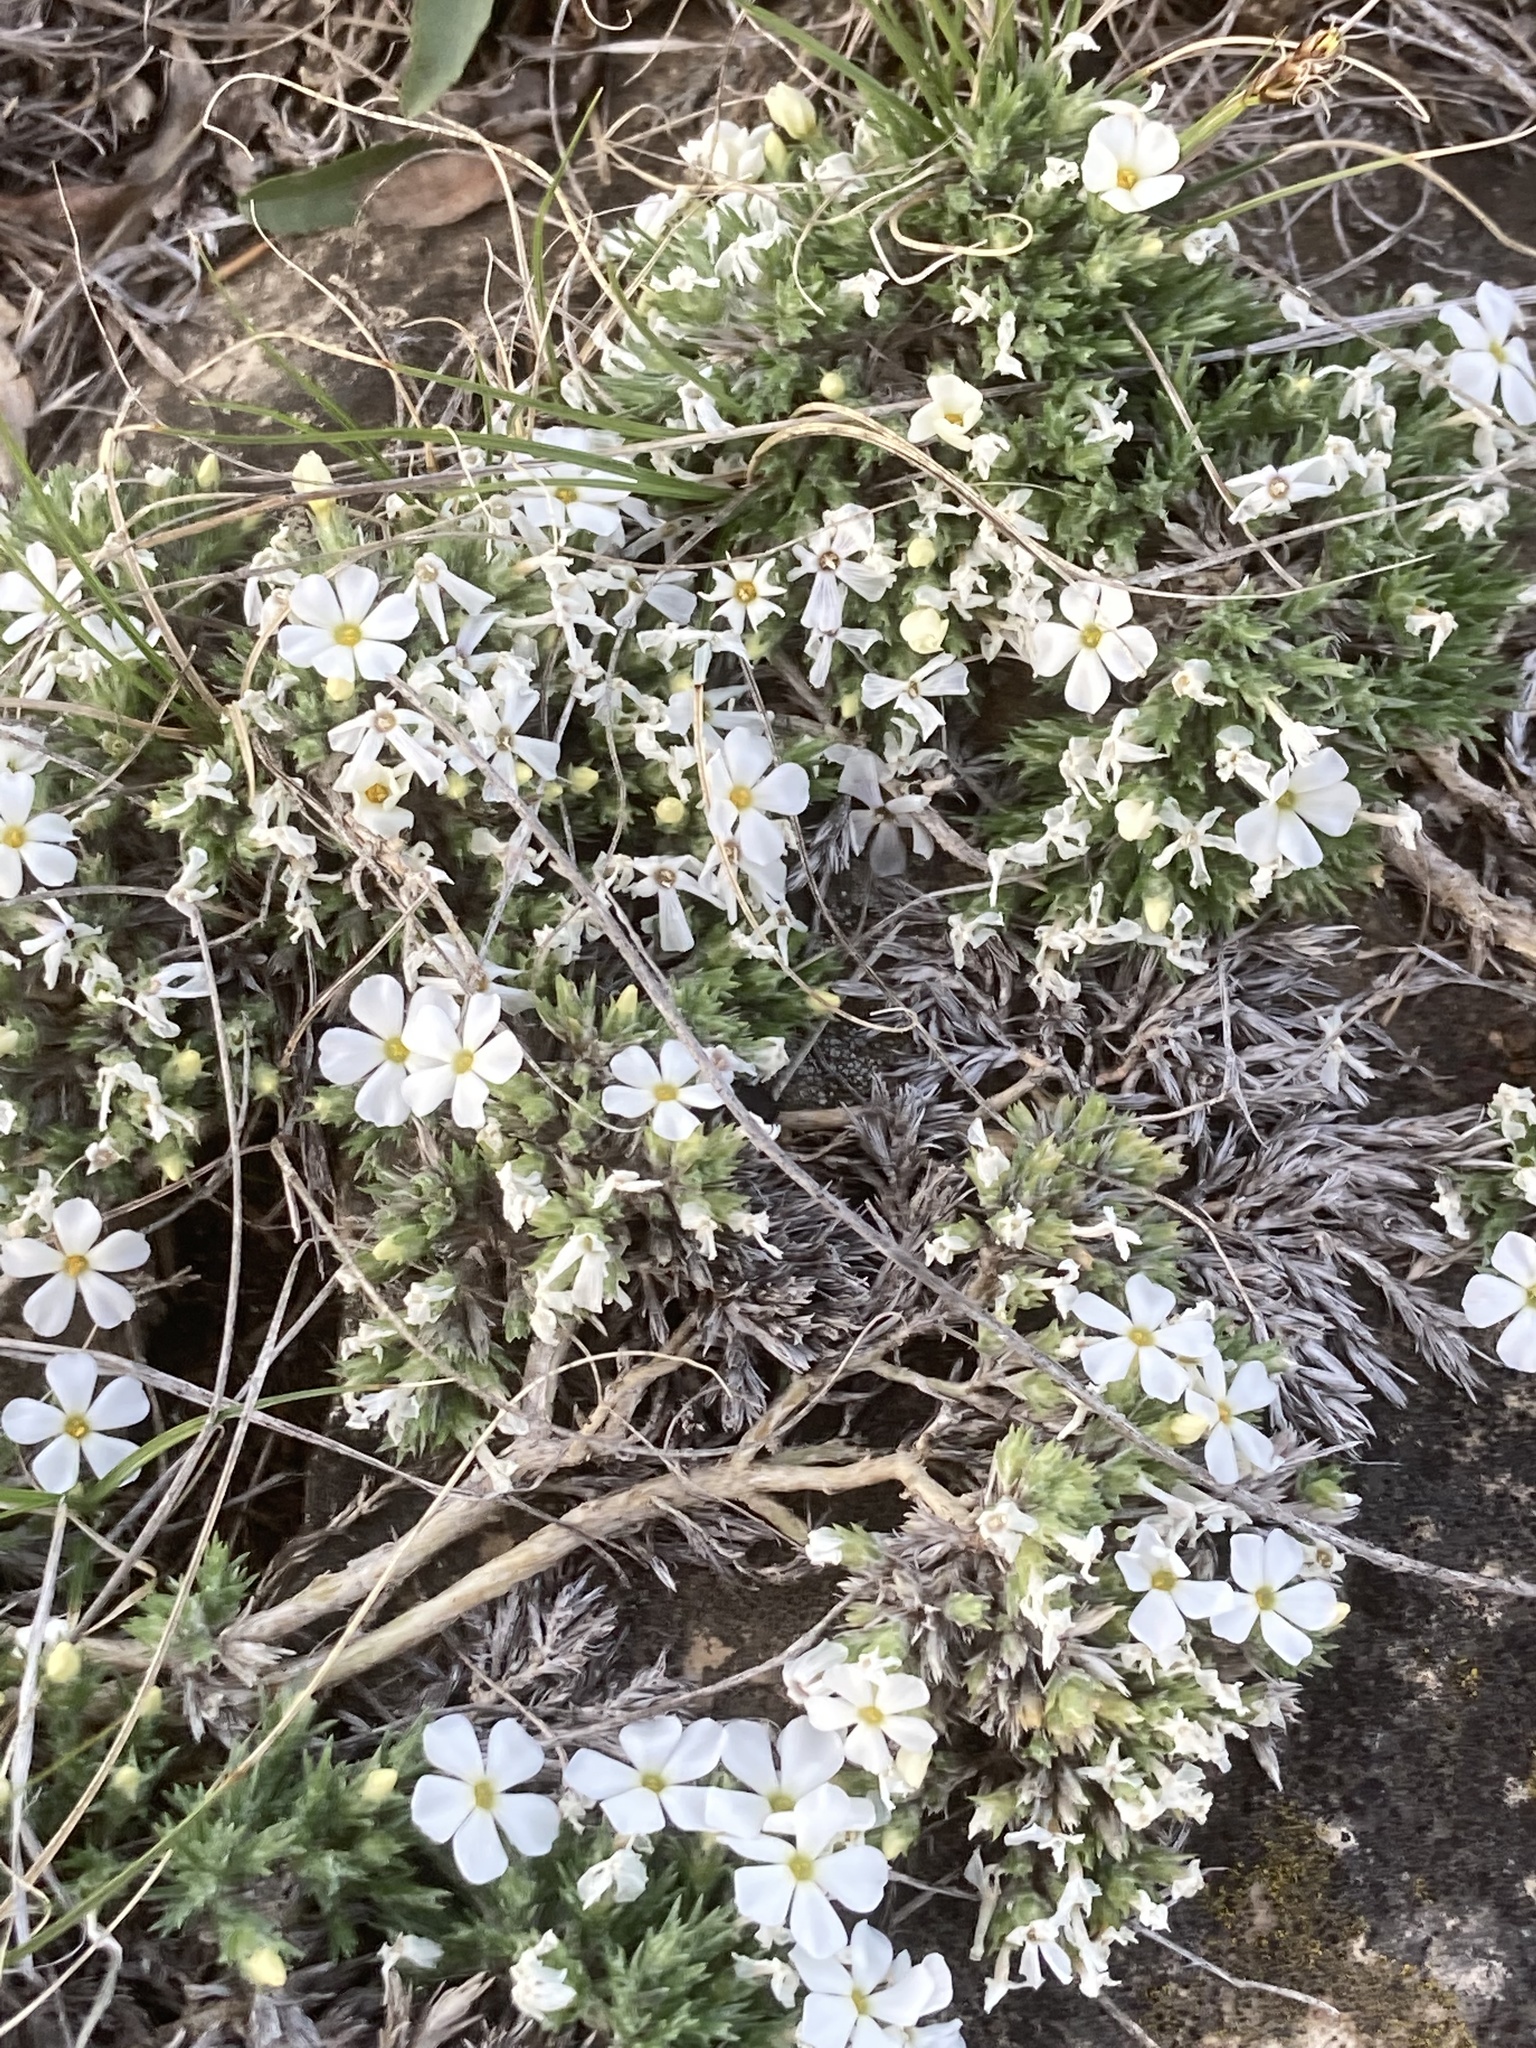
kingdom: Plantae
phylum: Tracheophyta
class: Magnoliopsida
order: Ericales
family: Polemoniaceae
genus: Phlox
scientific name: Phlox hoodii
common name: Moss phlox
